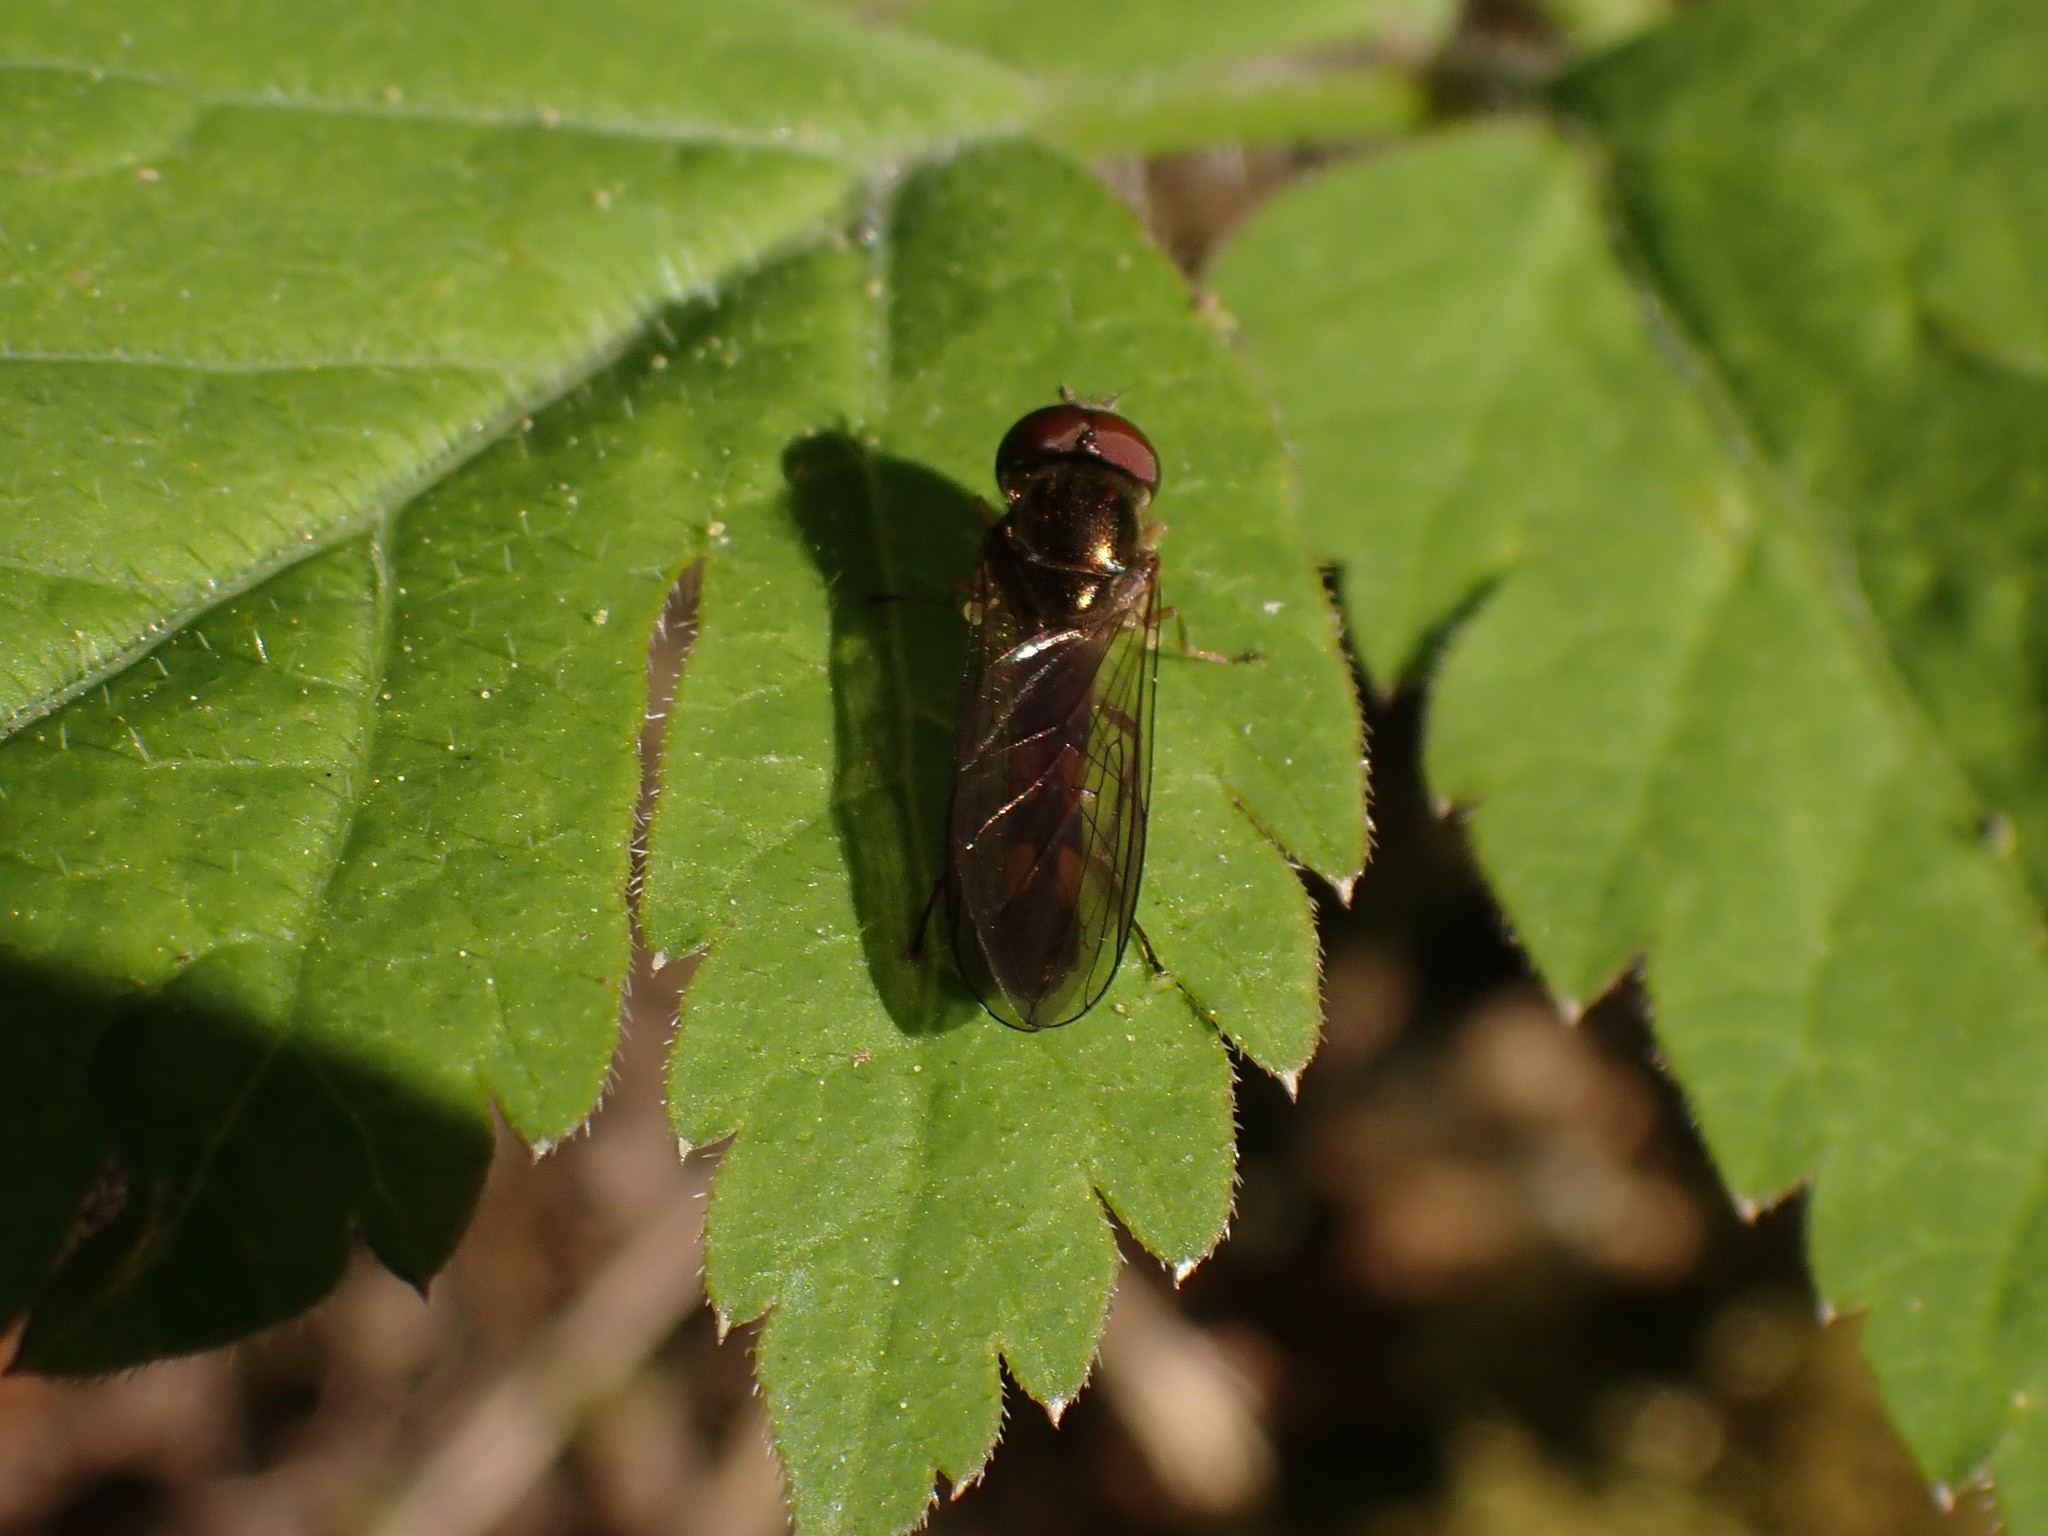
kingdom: Animalia
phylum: Arthropoda
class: Insecta
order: Diptera
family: Syrphidae
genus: Melanostoma
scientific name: Melanostoma mellina
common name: Hover fly
